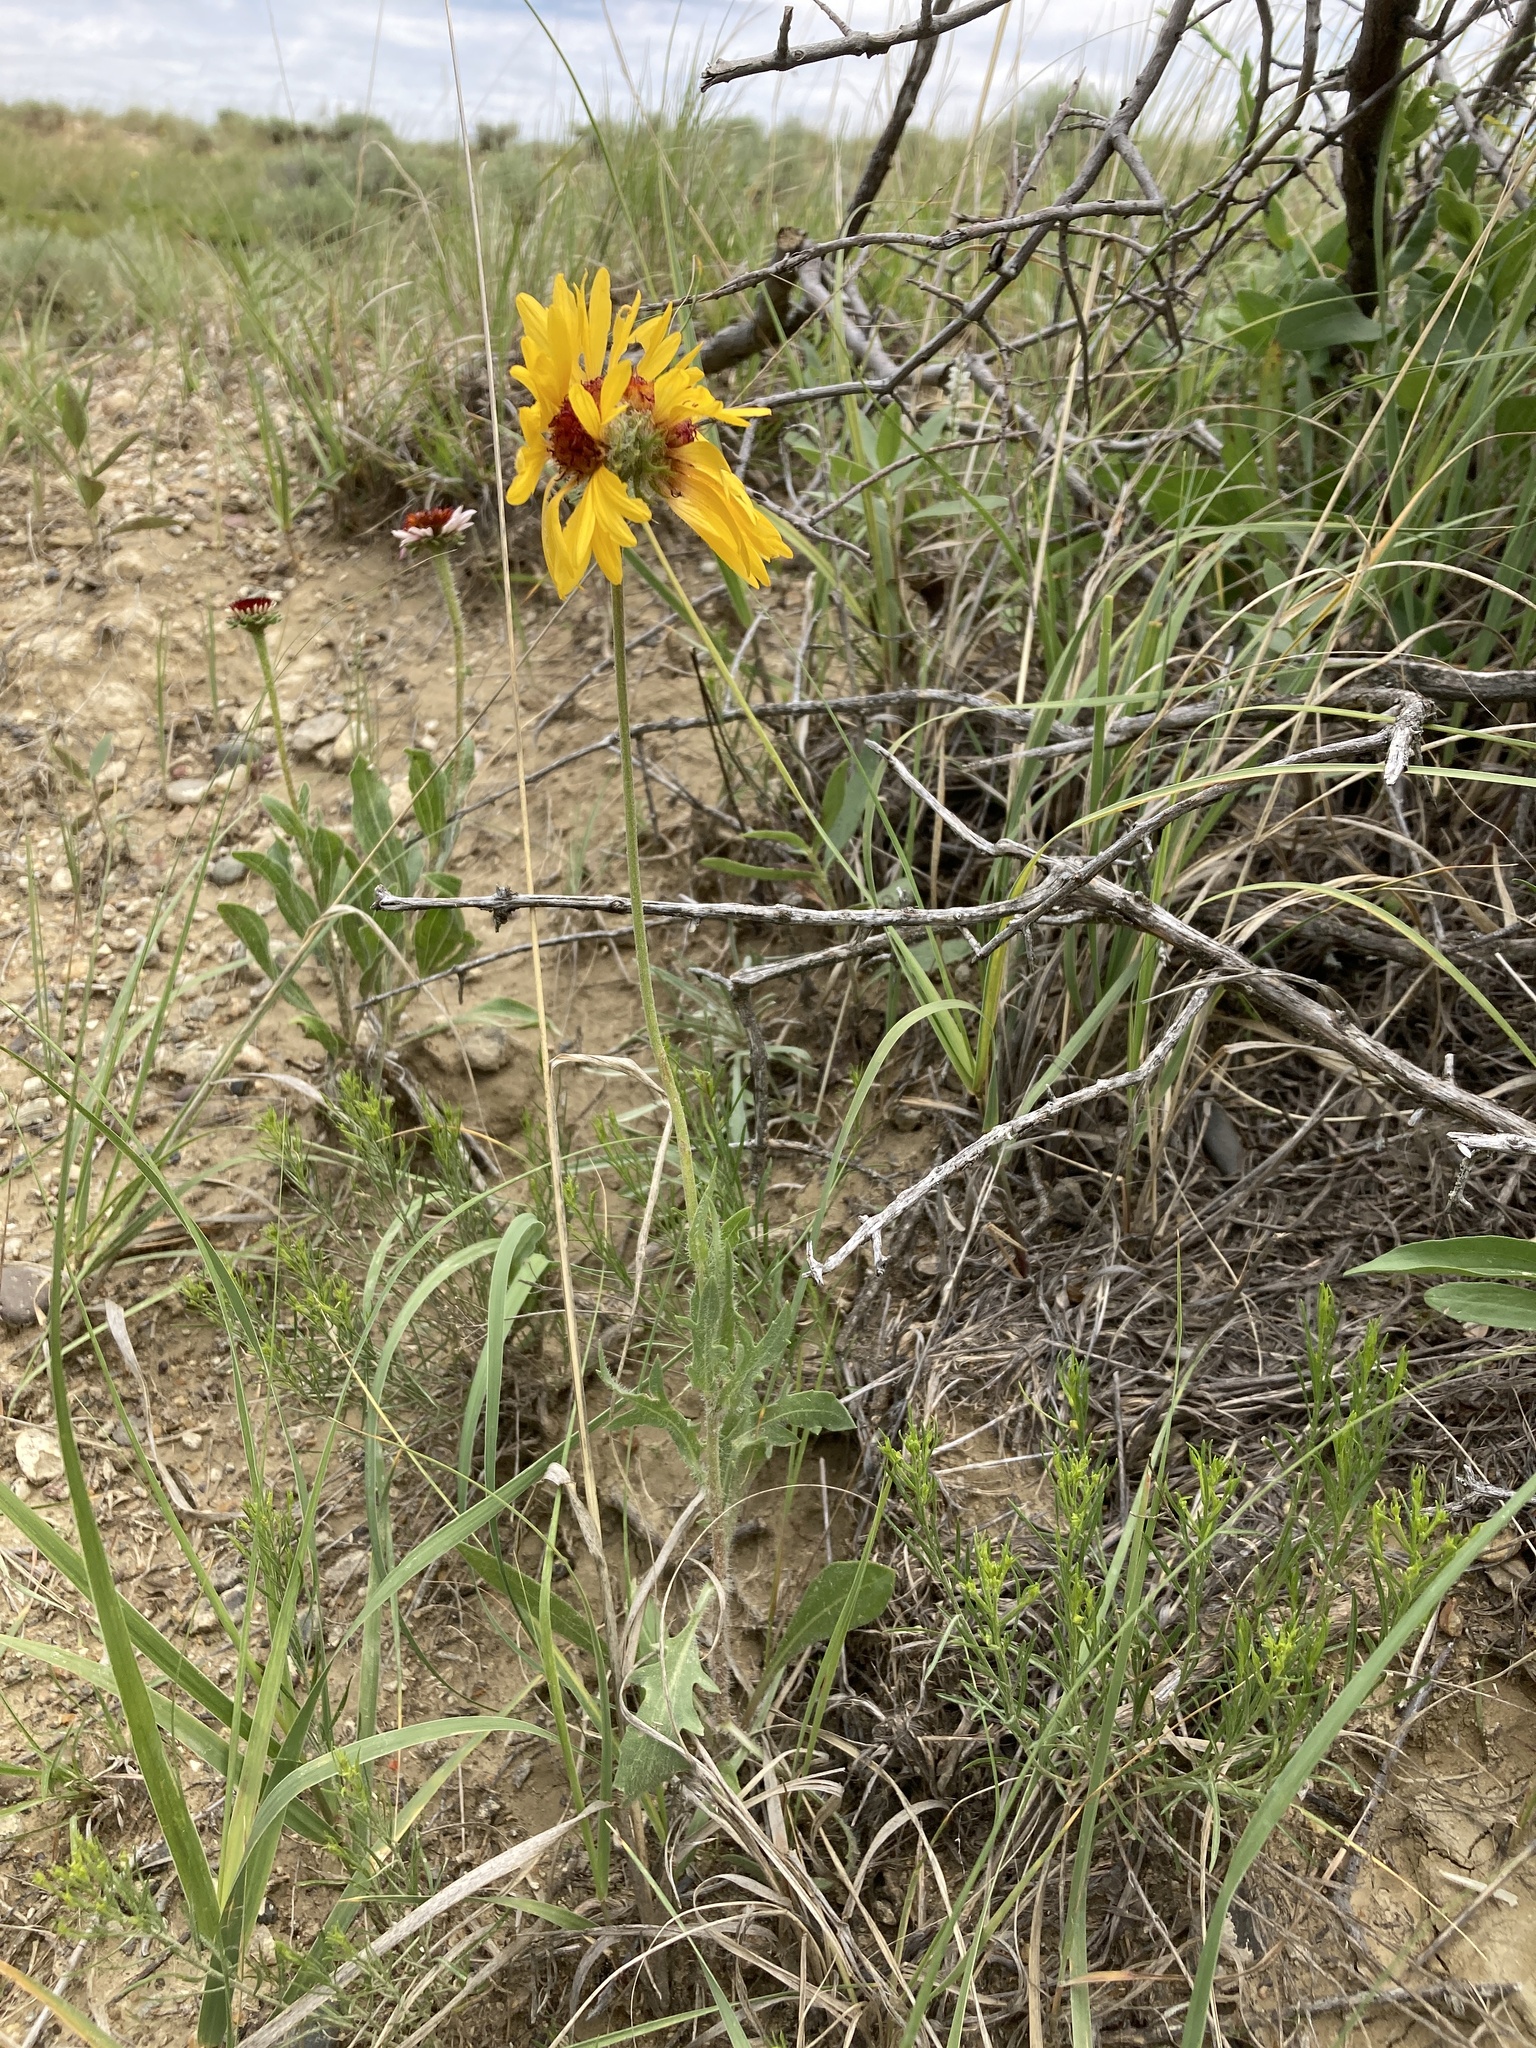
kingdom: Plantae
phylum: Tracheophyta
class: Magnoliopsida
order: Asterales
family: Asteraceae
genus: Gaillardia
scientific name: Gaillardia aristata
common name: Blanket-flower
